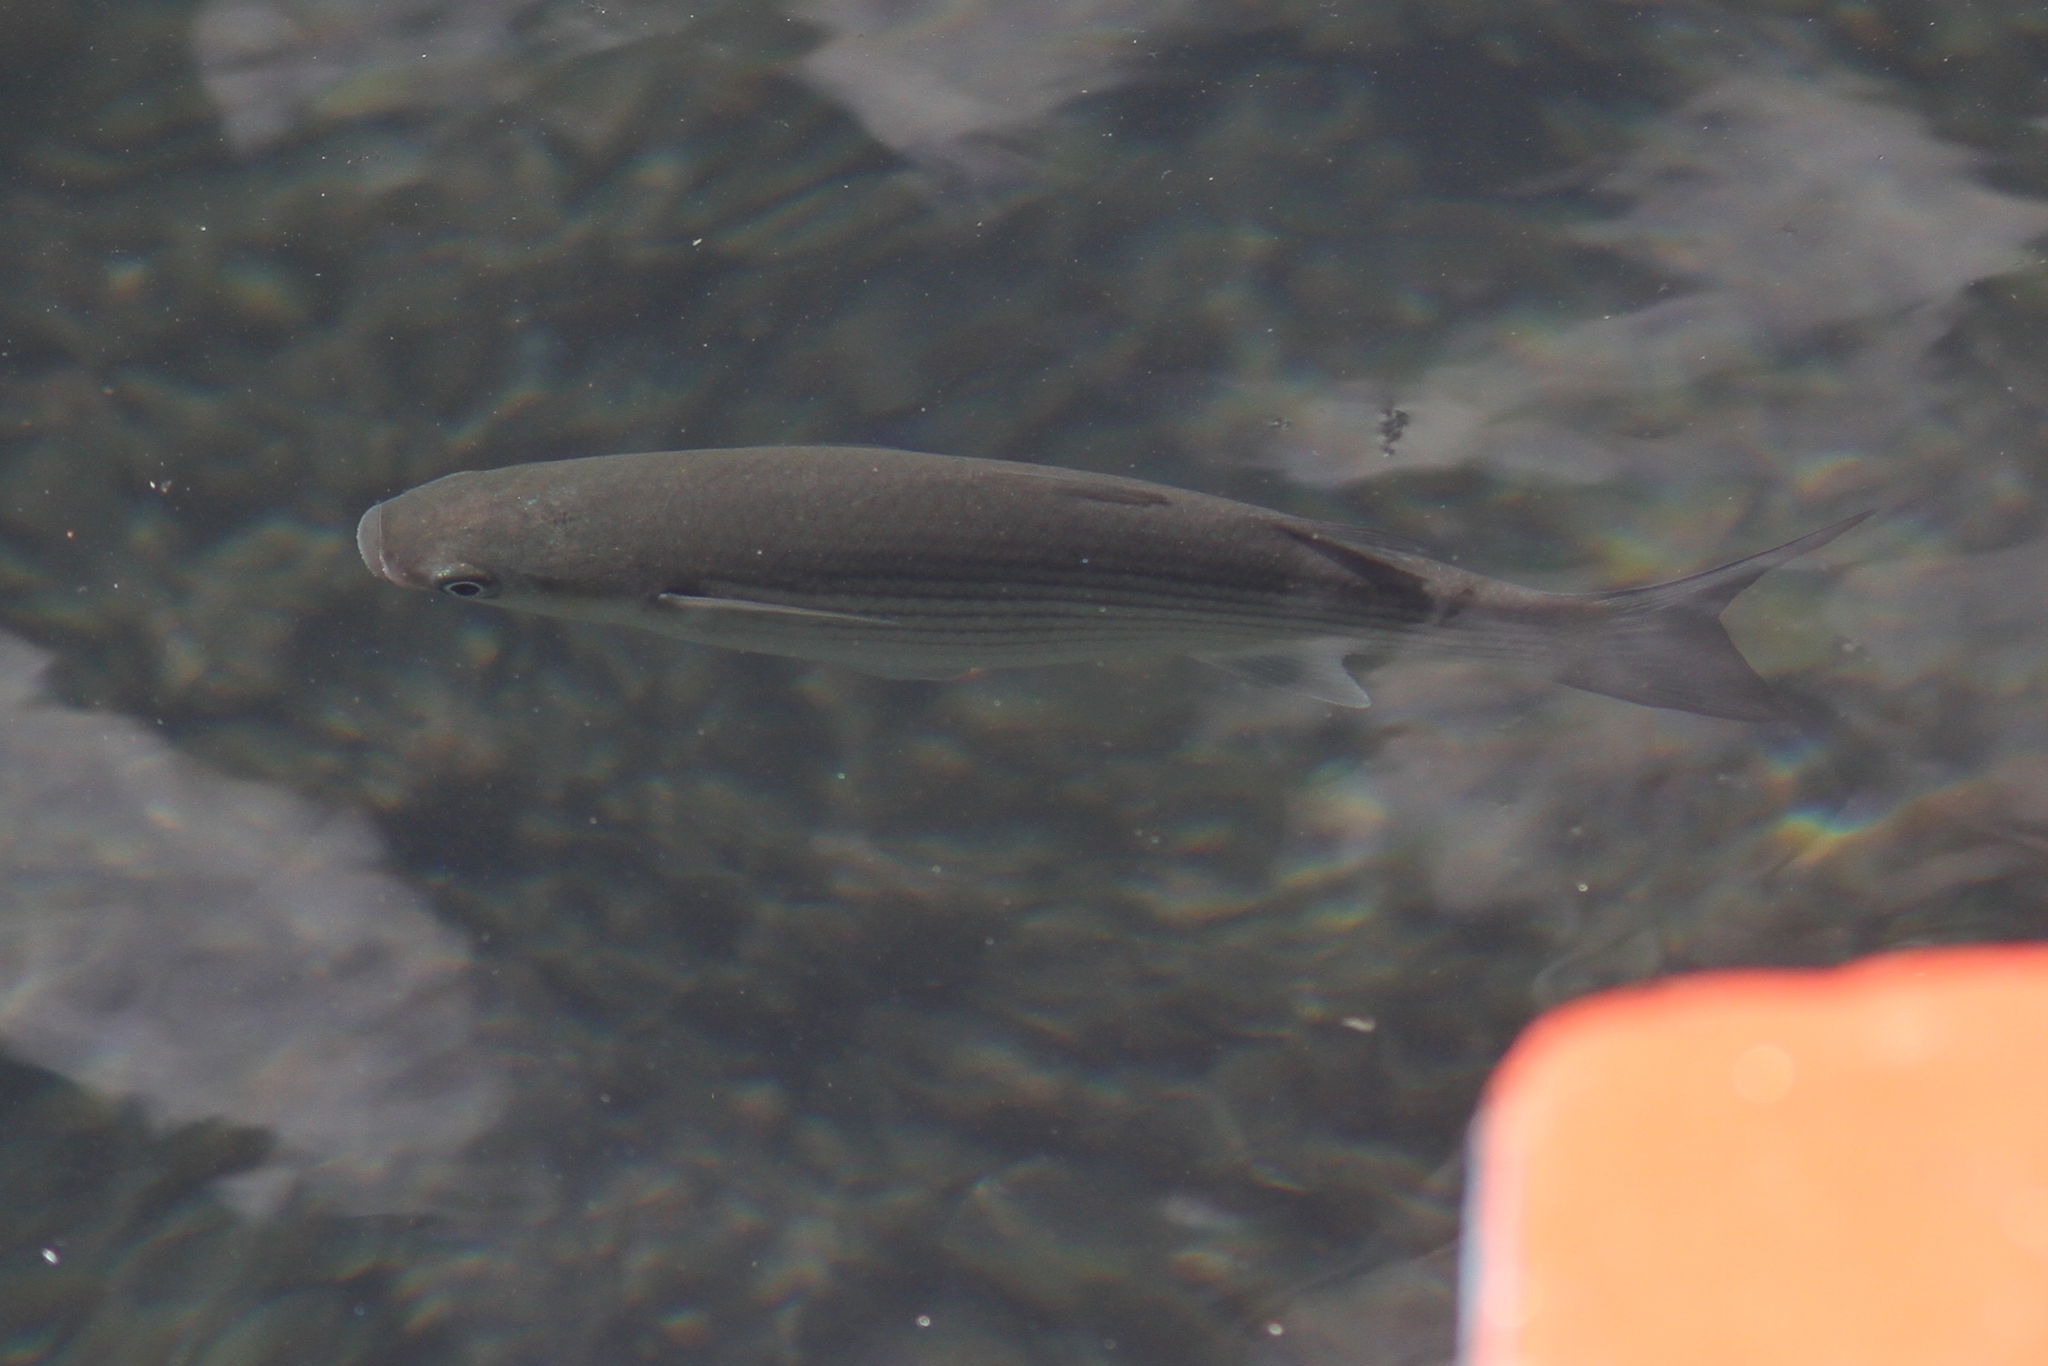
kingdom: Animalia
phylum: Chordata
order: Mugiliformes
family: Mugilidae
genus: Chelon
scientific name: Chelon labrosus
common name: Thick-lipped mullet
